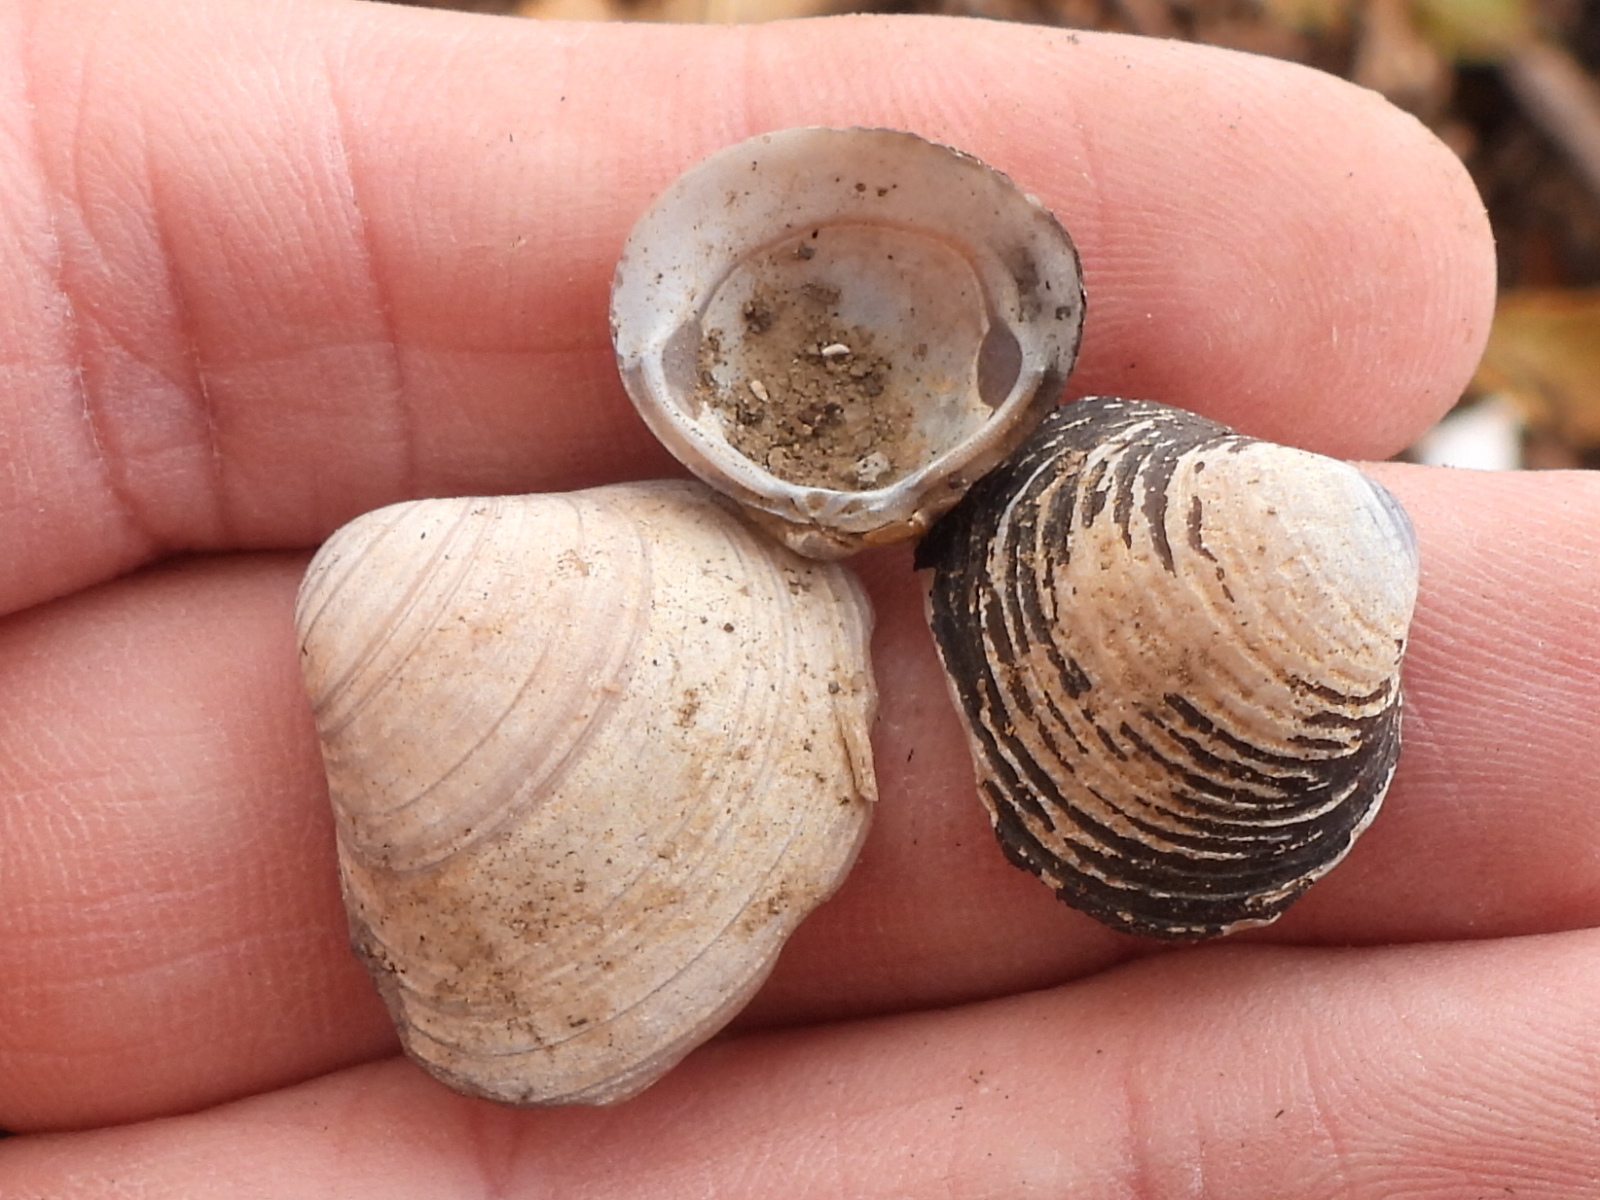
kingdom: Animalia
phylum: Mollusca
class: Bivalvia
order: Venerida
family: Cyrenidae
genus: Corbicula
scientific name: Corbicula fluminea
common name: Asian clam
